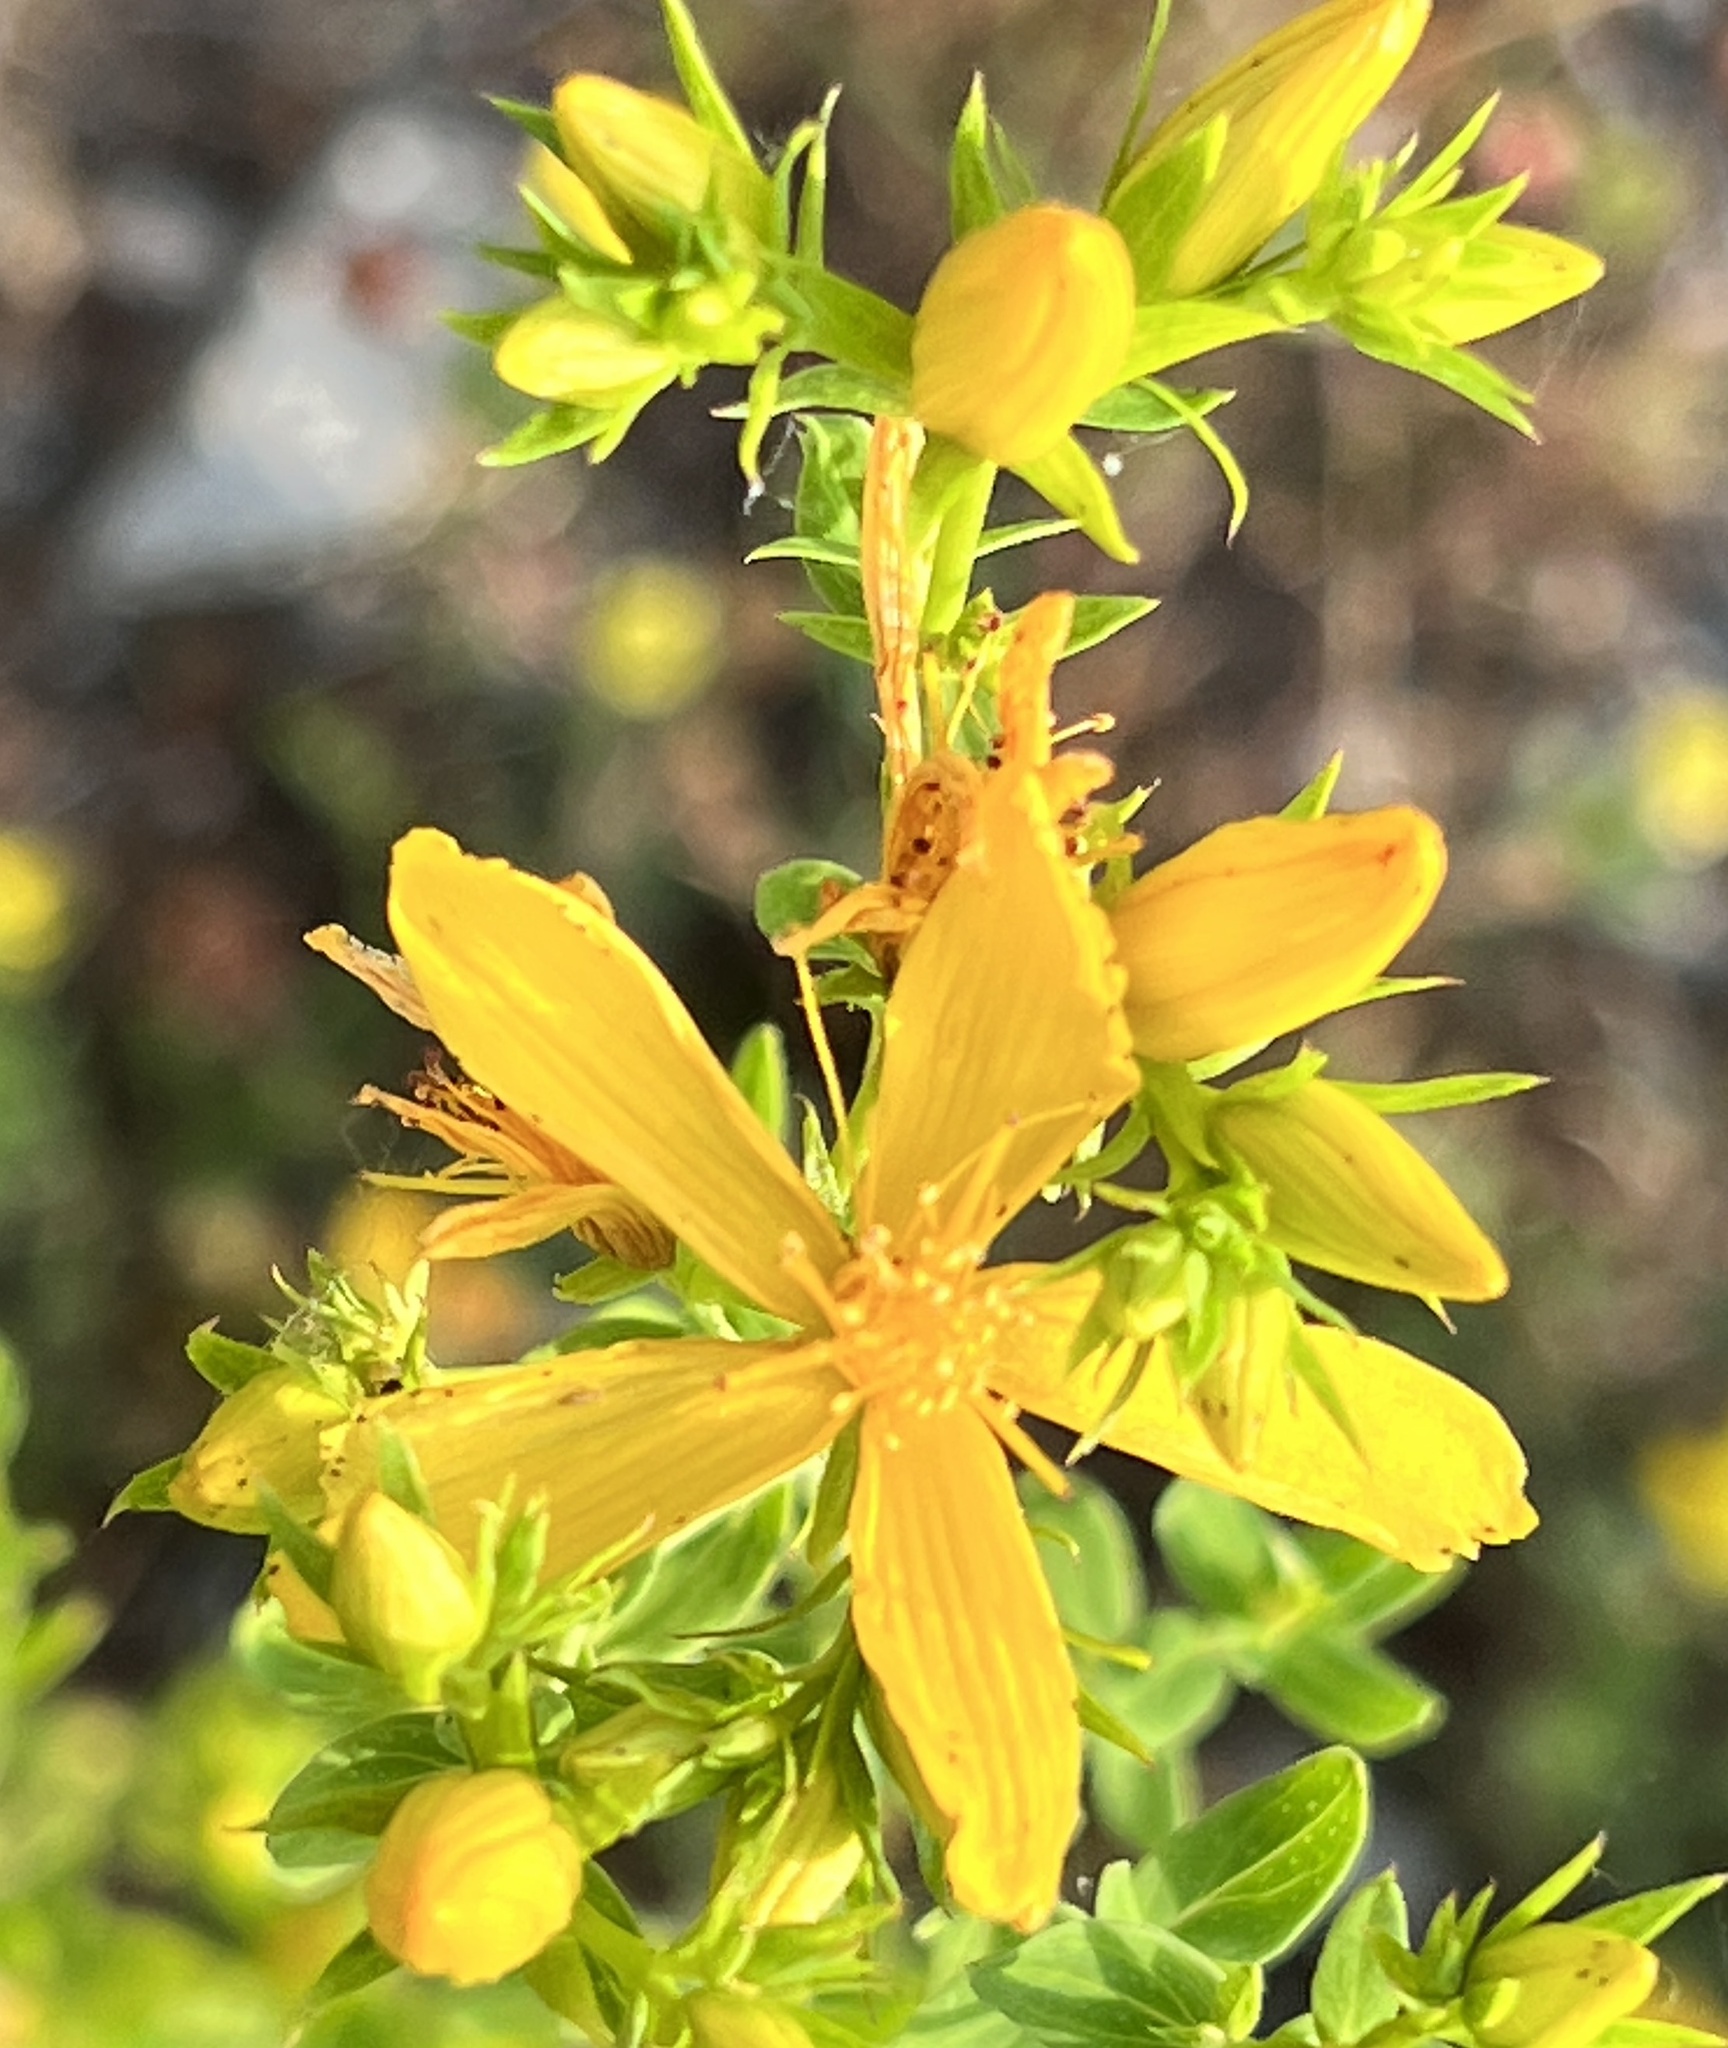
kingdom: Plantae
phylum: Tracheophyta
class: Magnoliopsida
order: Malpighiales
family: Hypericaceae
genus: Hypericum
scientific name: Hypericum perforatum
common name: Common st. johnswort
